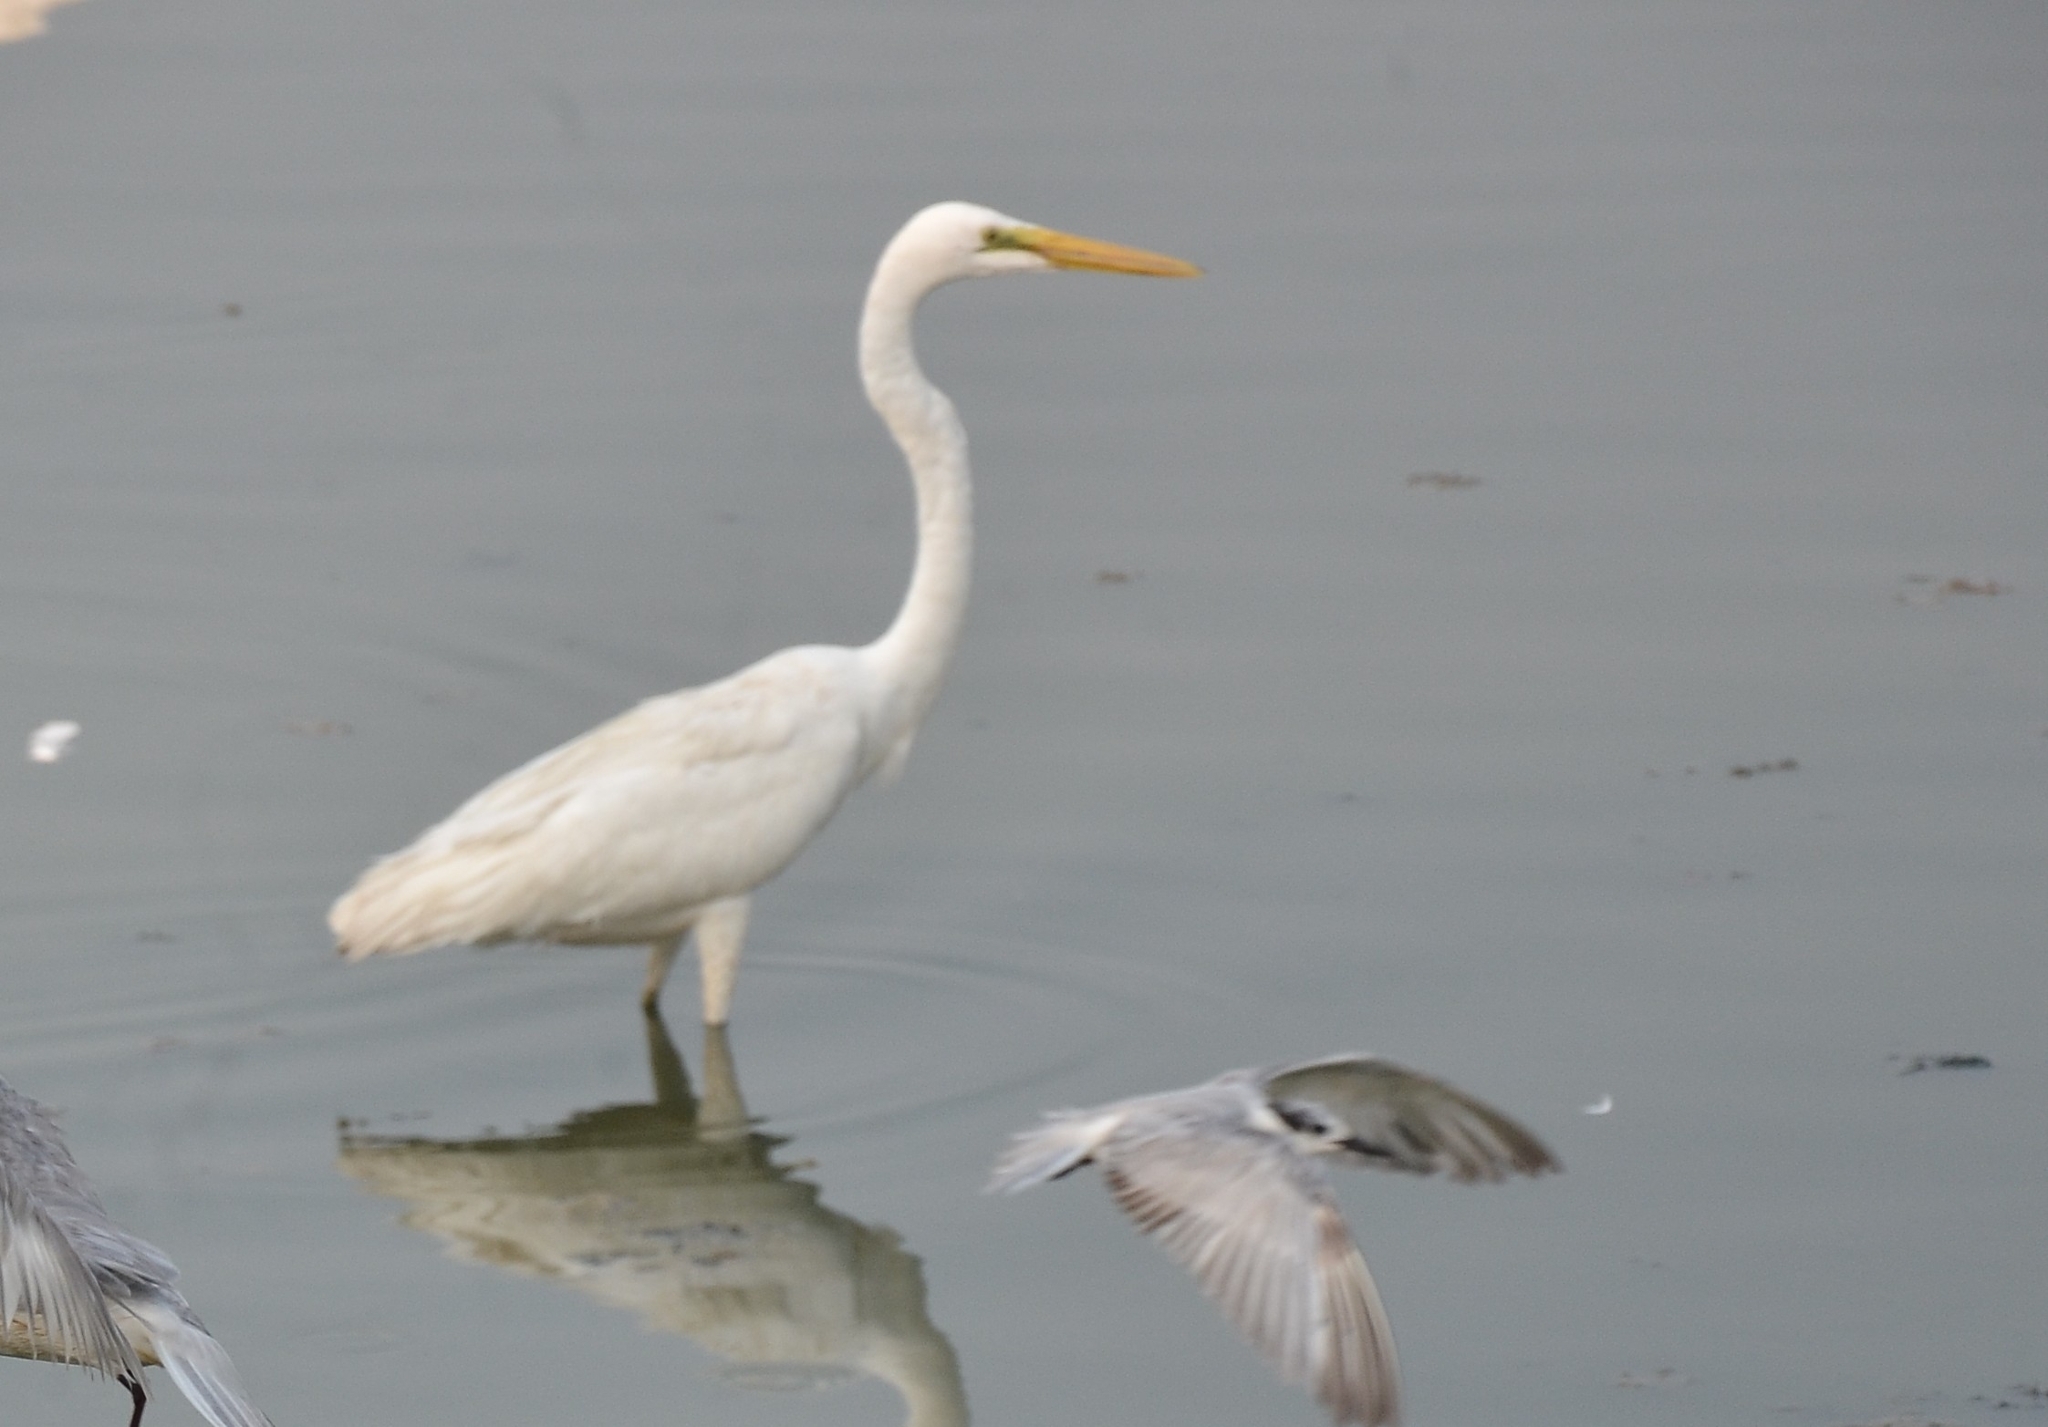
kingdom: Animalia
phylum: Chordata
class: Aves
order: Pelecaniformes
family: Ardeidae
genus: Ardea
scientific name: Ardea alba
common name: Great egret
